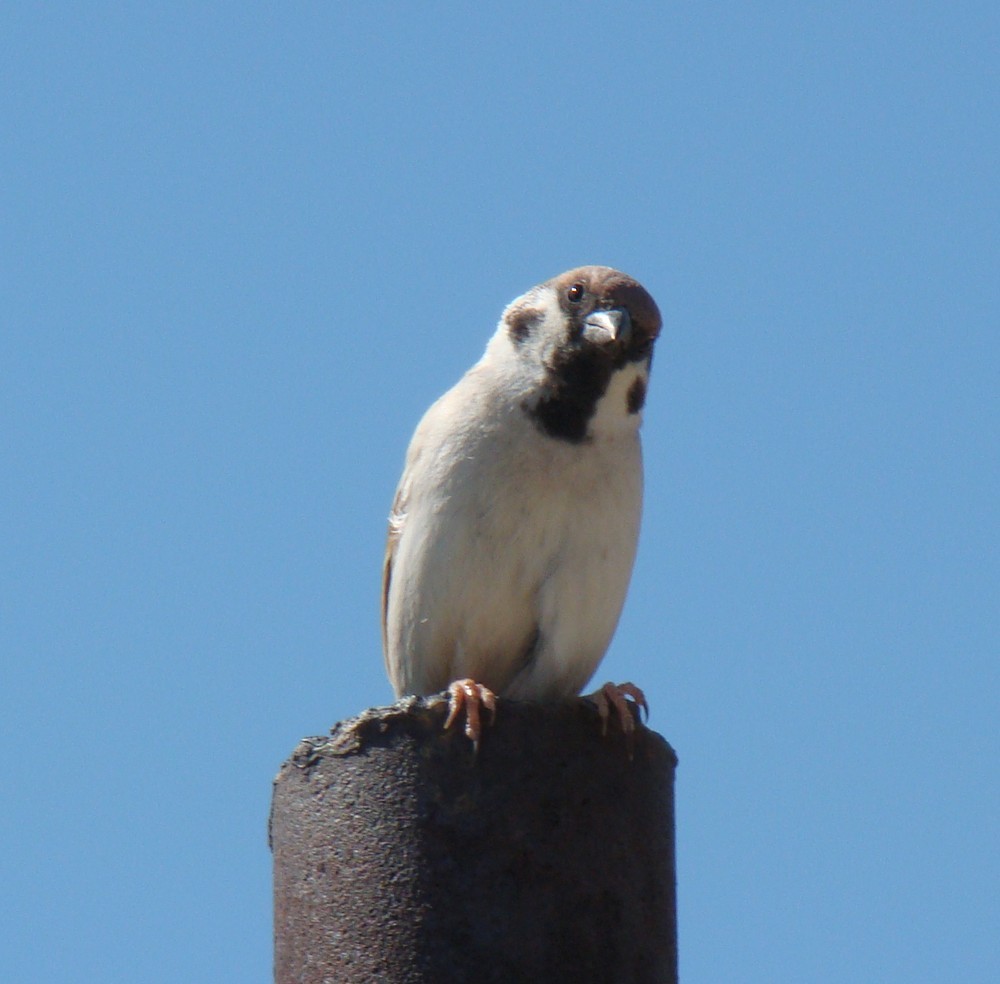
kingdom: Animalia
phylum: Chordata
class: Aves
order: Passeriformes
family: Passeridae
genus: Passer
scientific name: Passer montanus
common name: Eurasian tree sparrow
